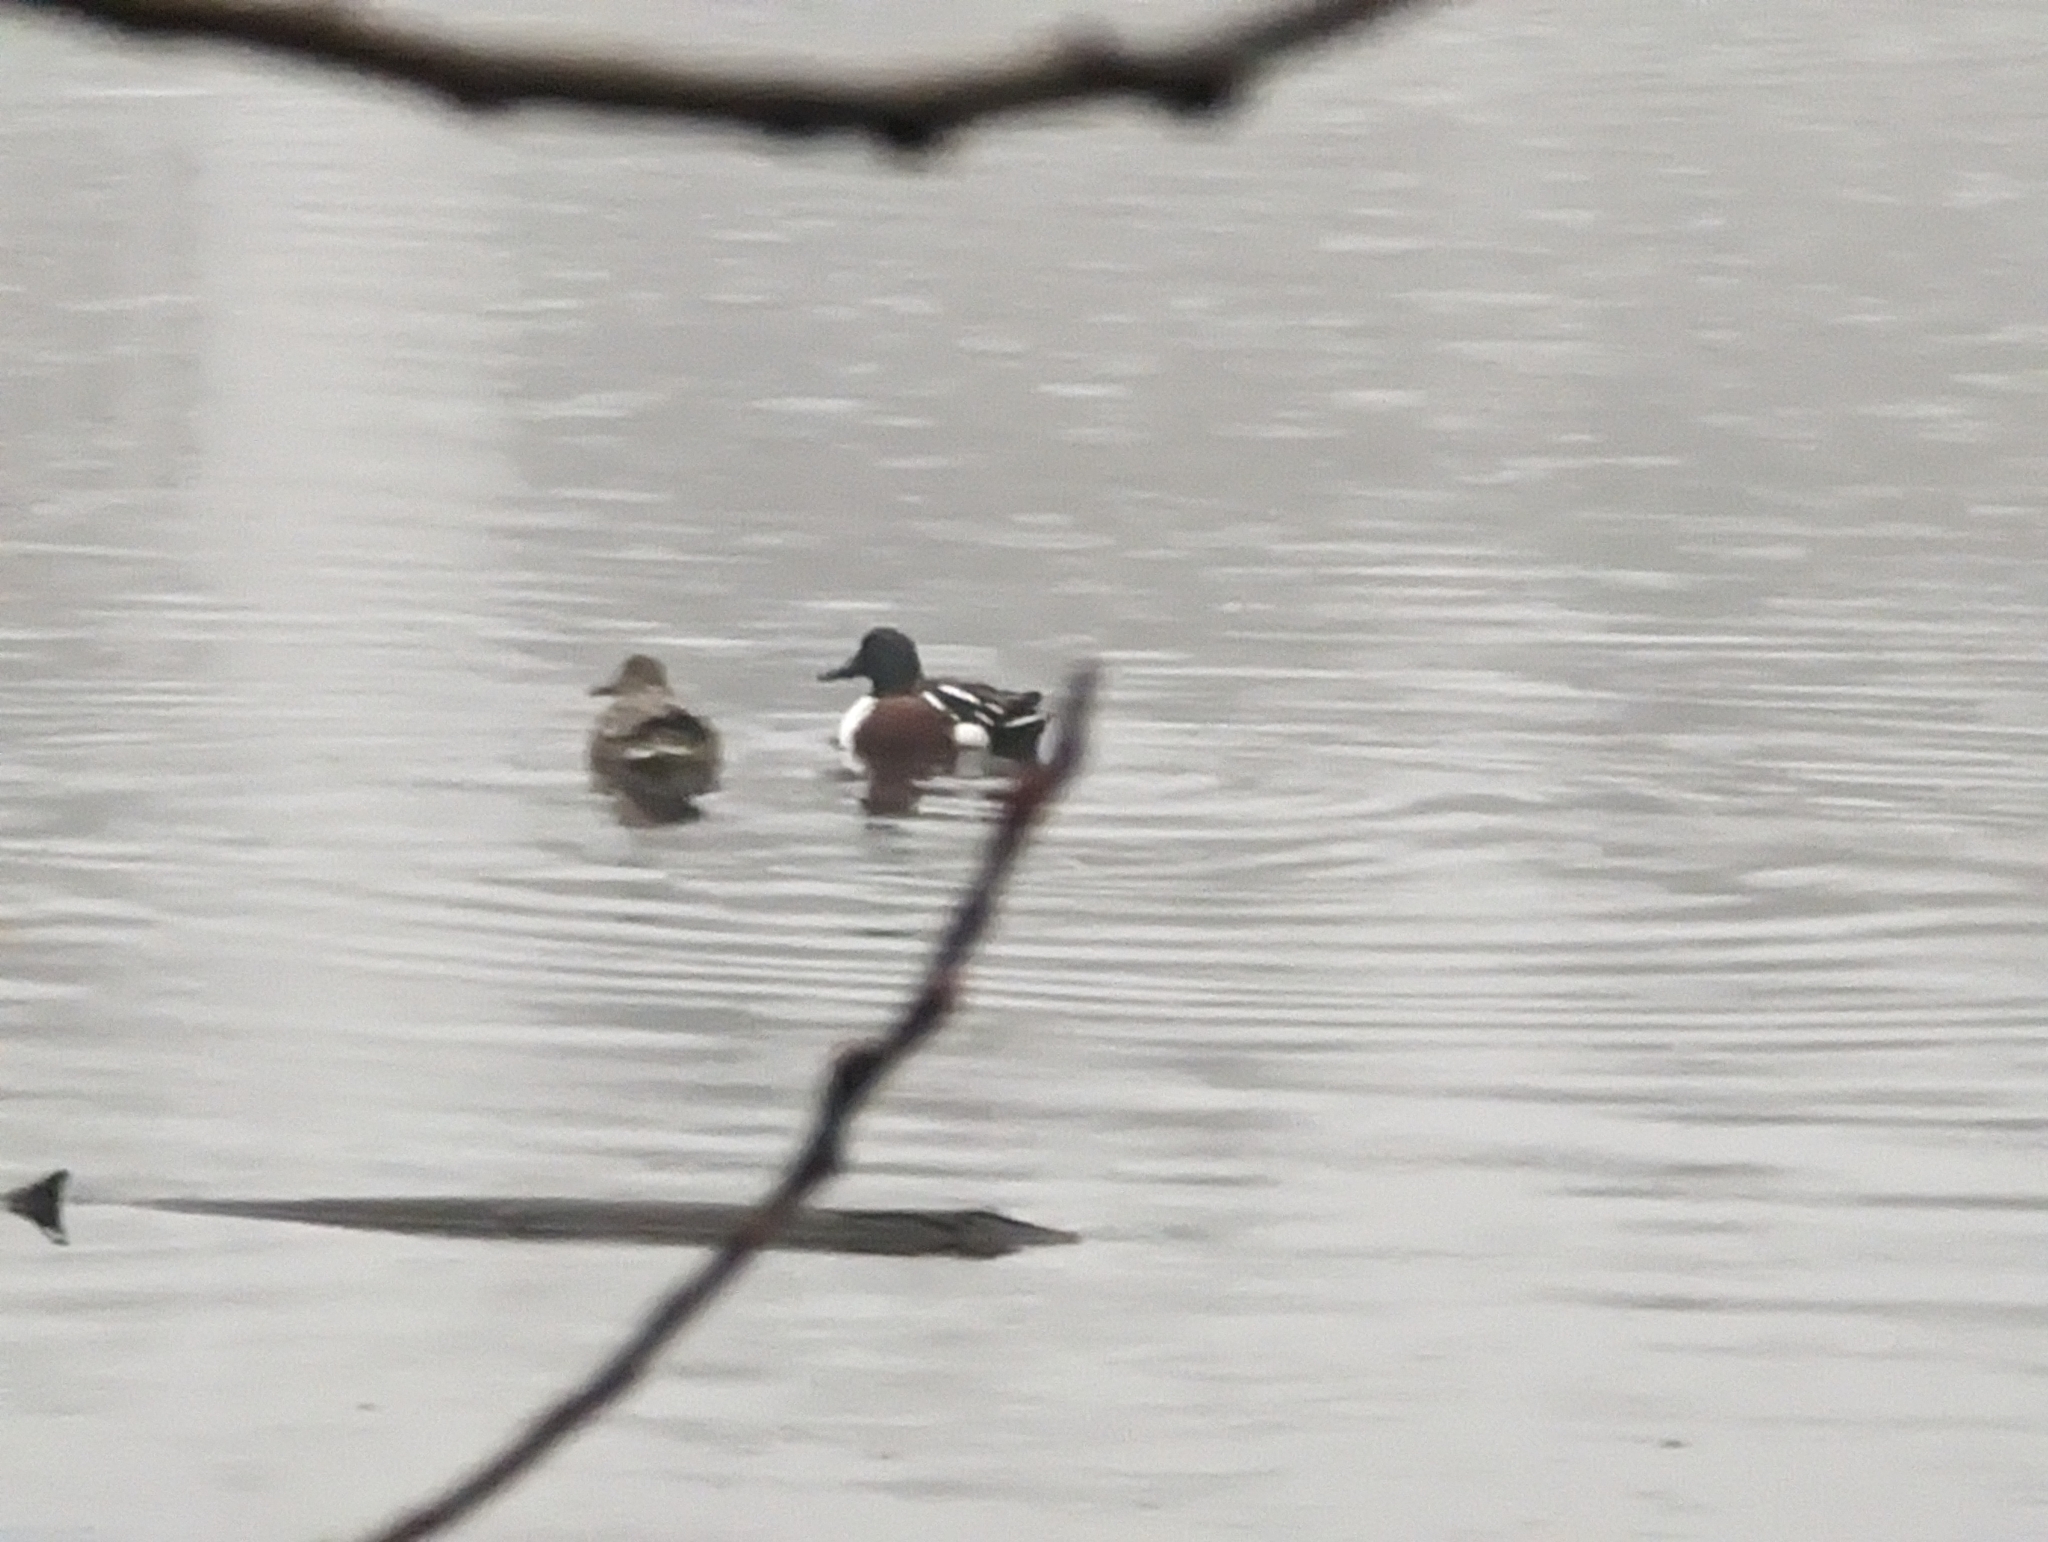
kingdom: Animalia
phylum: Chordata
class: Aves
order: Anseriformes
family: Anatidae
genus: Spatula
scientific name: Spatula clypeata
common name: Northern shoveler
